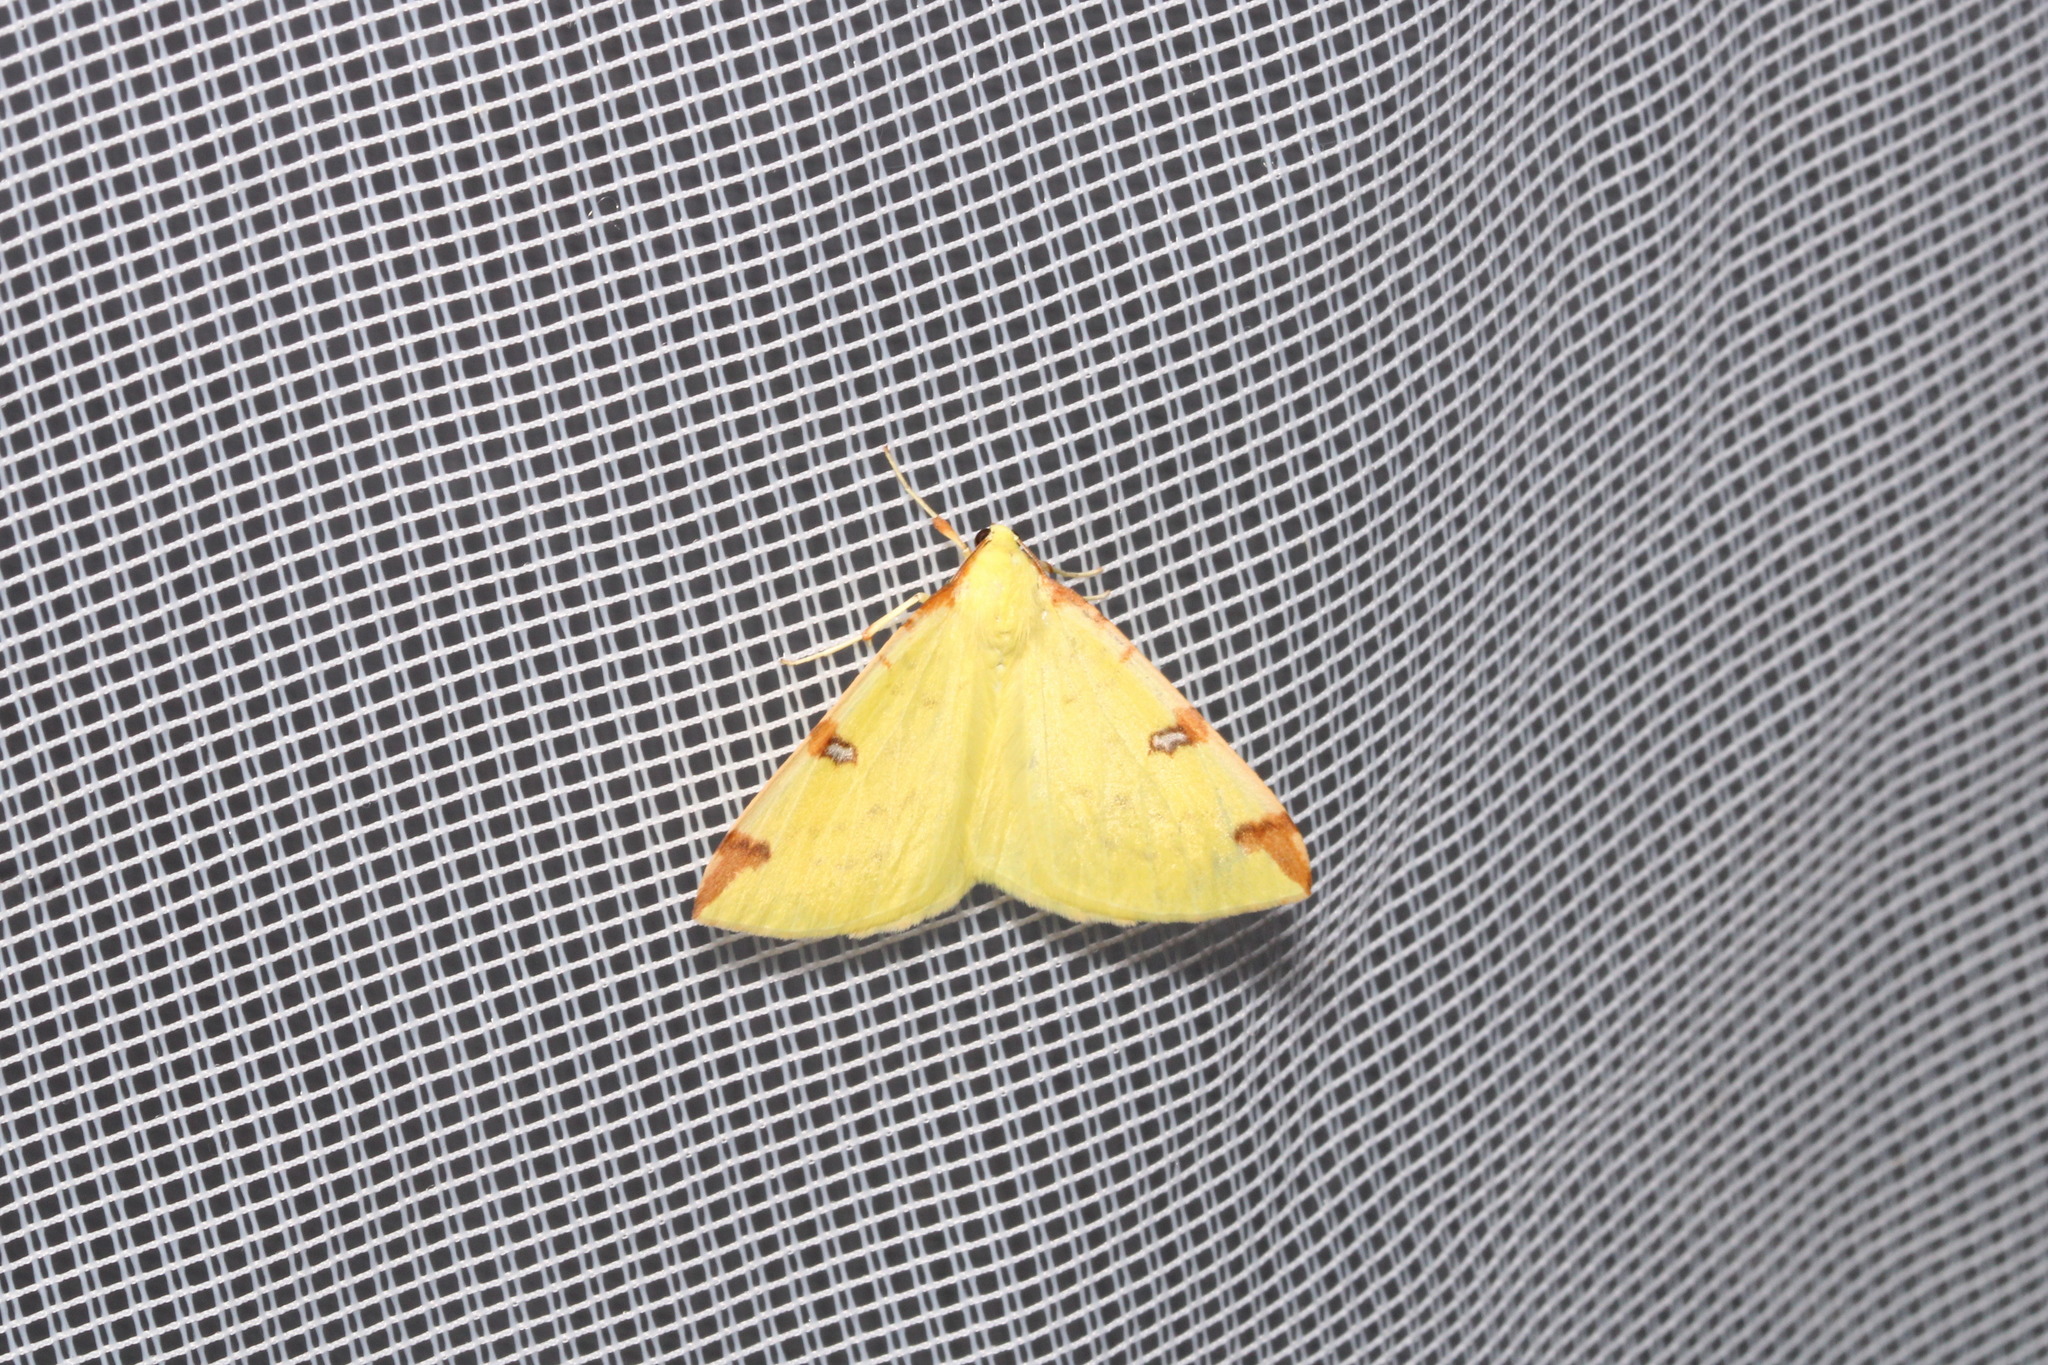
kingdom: Animalia
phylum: Arthropoda
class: Insecta
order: Lepidoptera
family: Geometridae
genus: Opisthograptis
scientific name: Opisthograptis luteolata
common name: Brimstone moth
